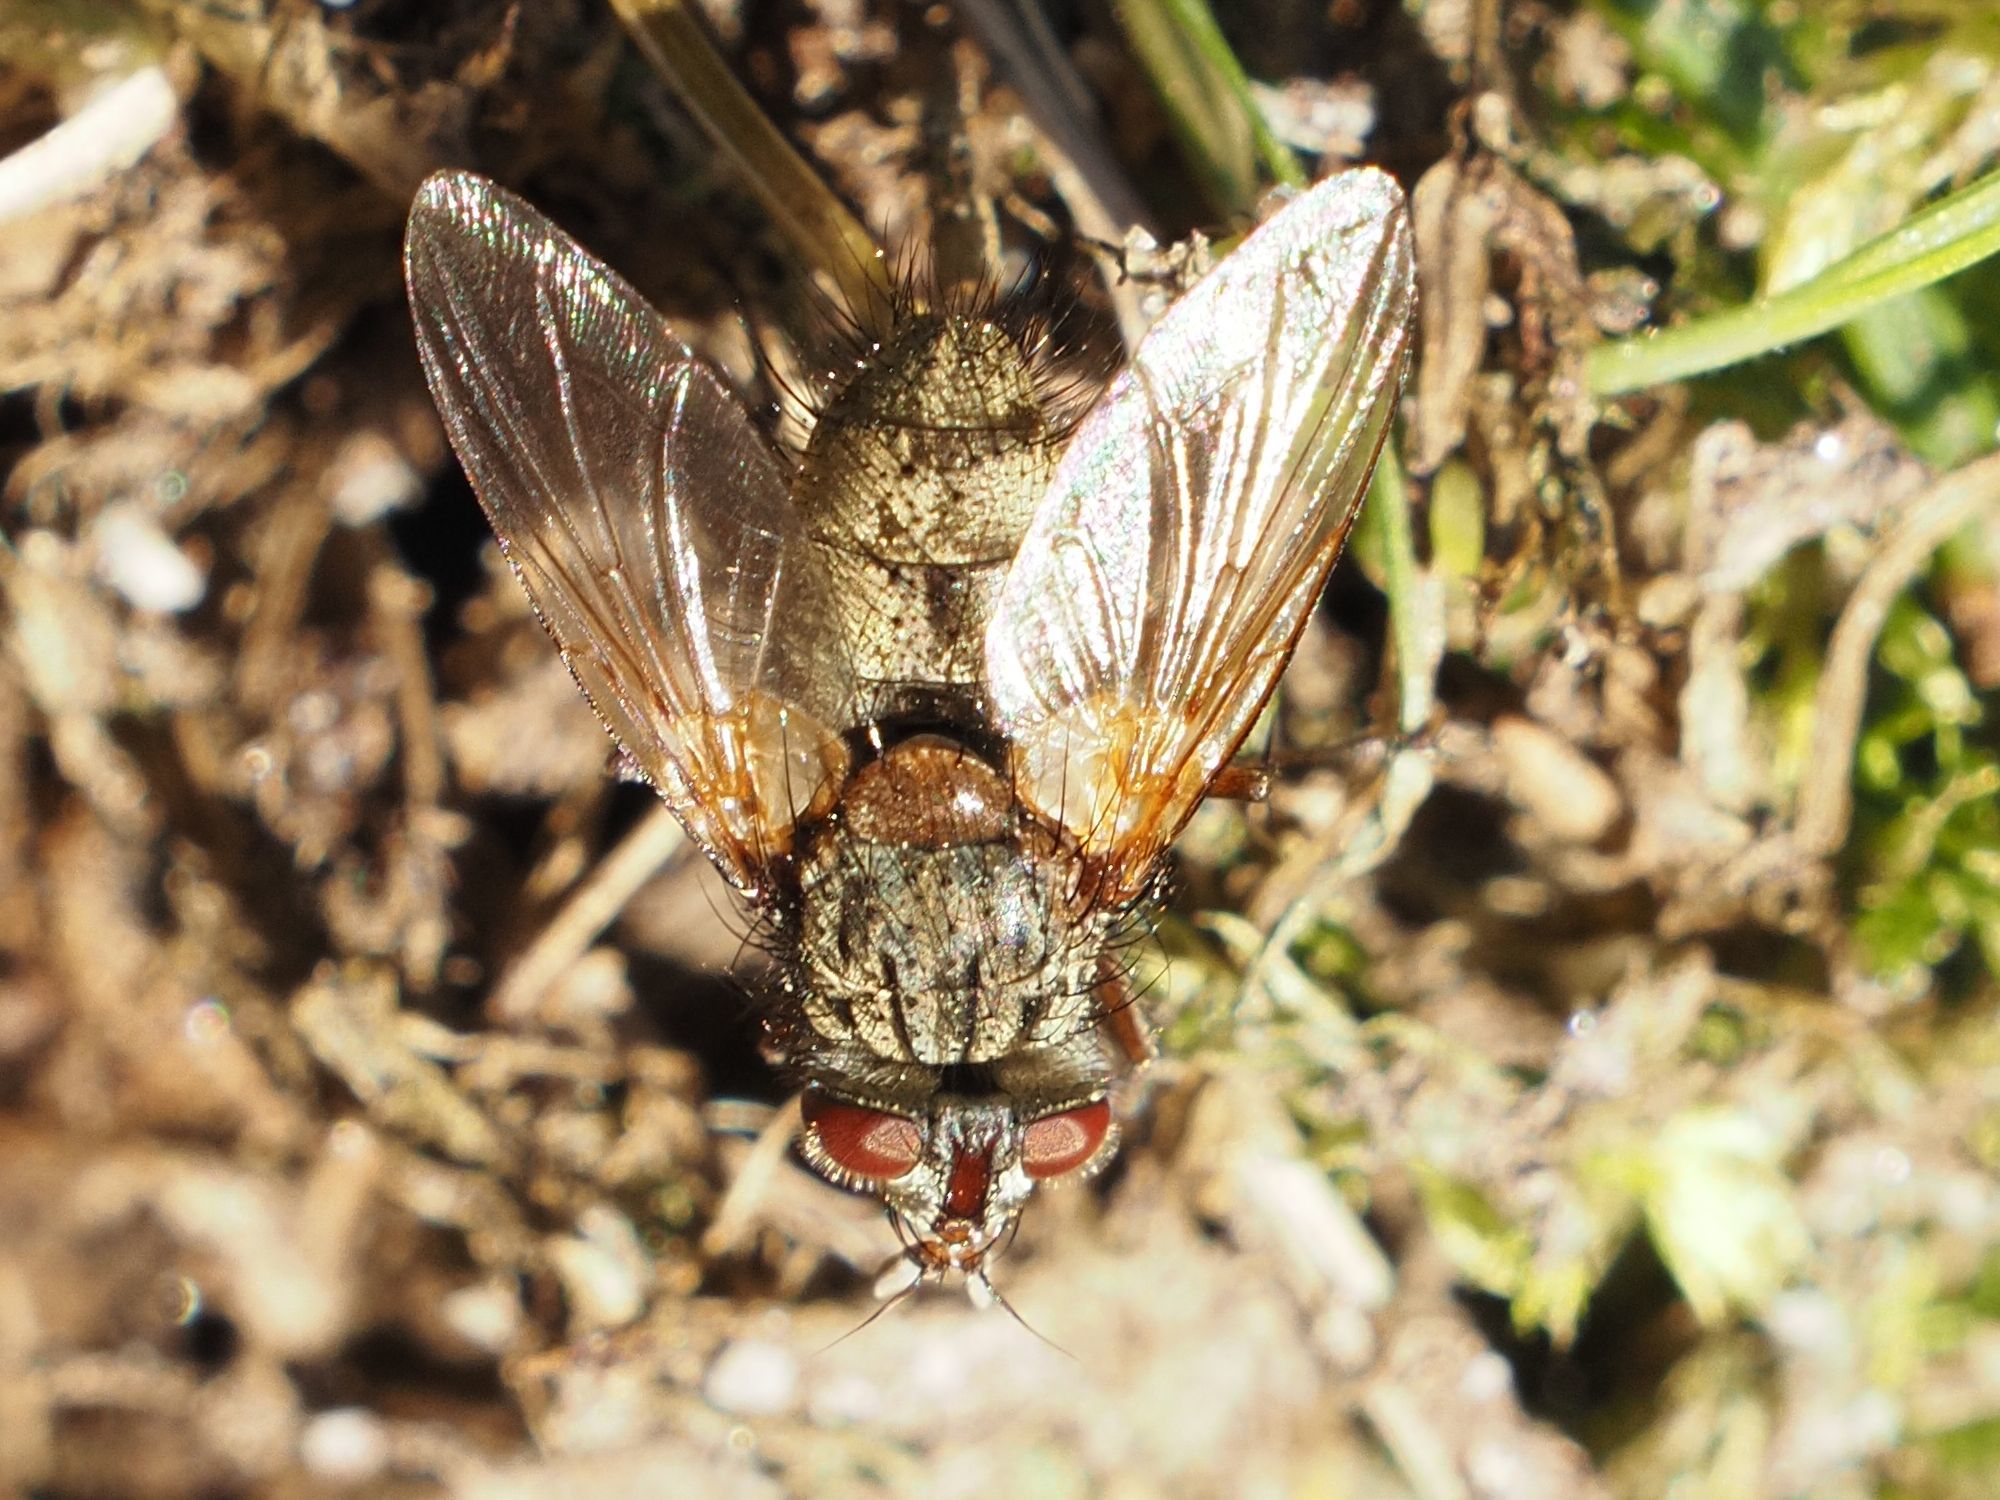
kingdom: Animalia
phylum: Arthropoda
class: Insecta
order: Diptera
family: Tachinidae
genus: Phryno
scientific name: Phryno vetula
